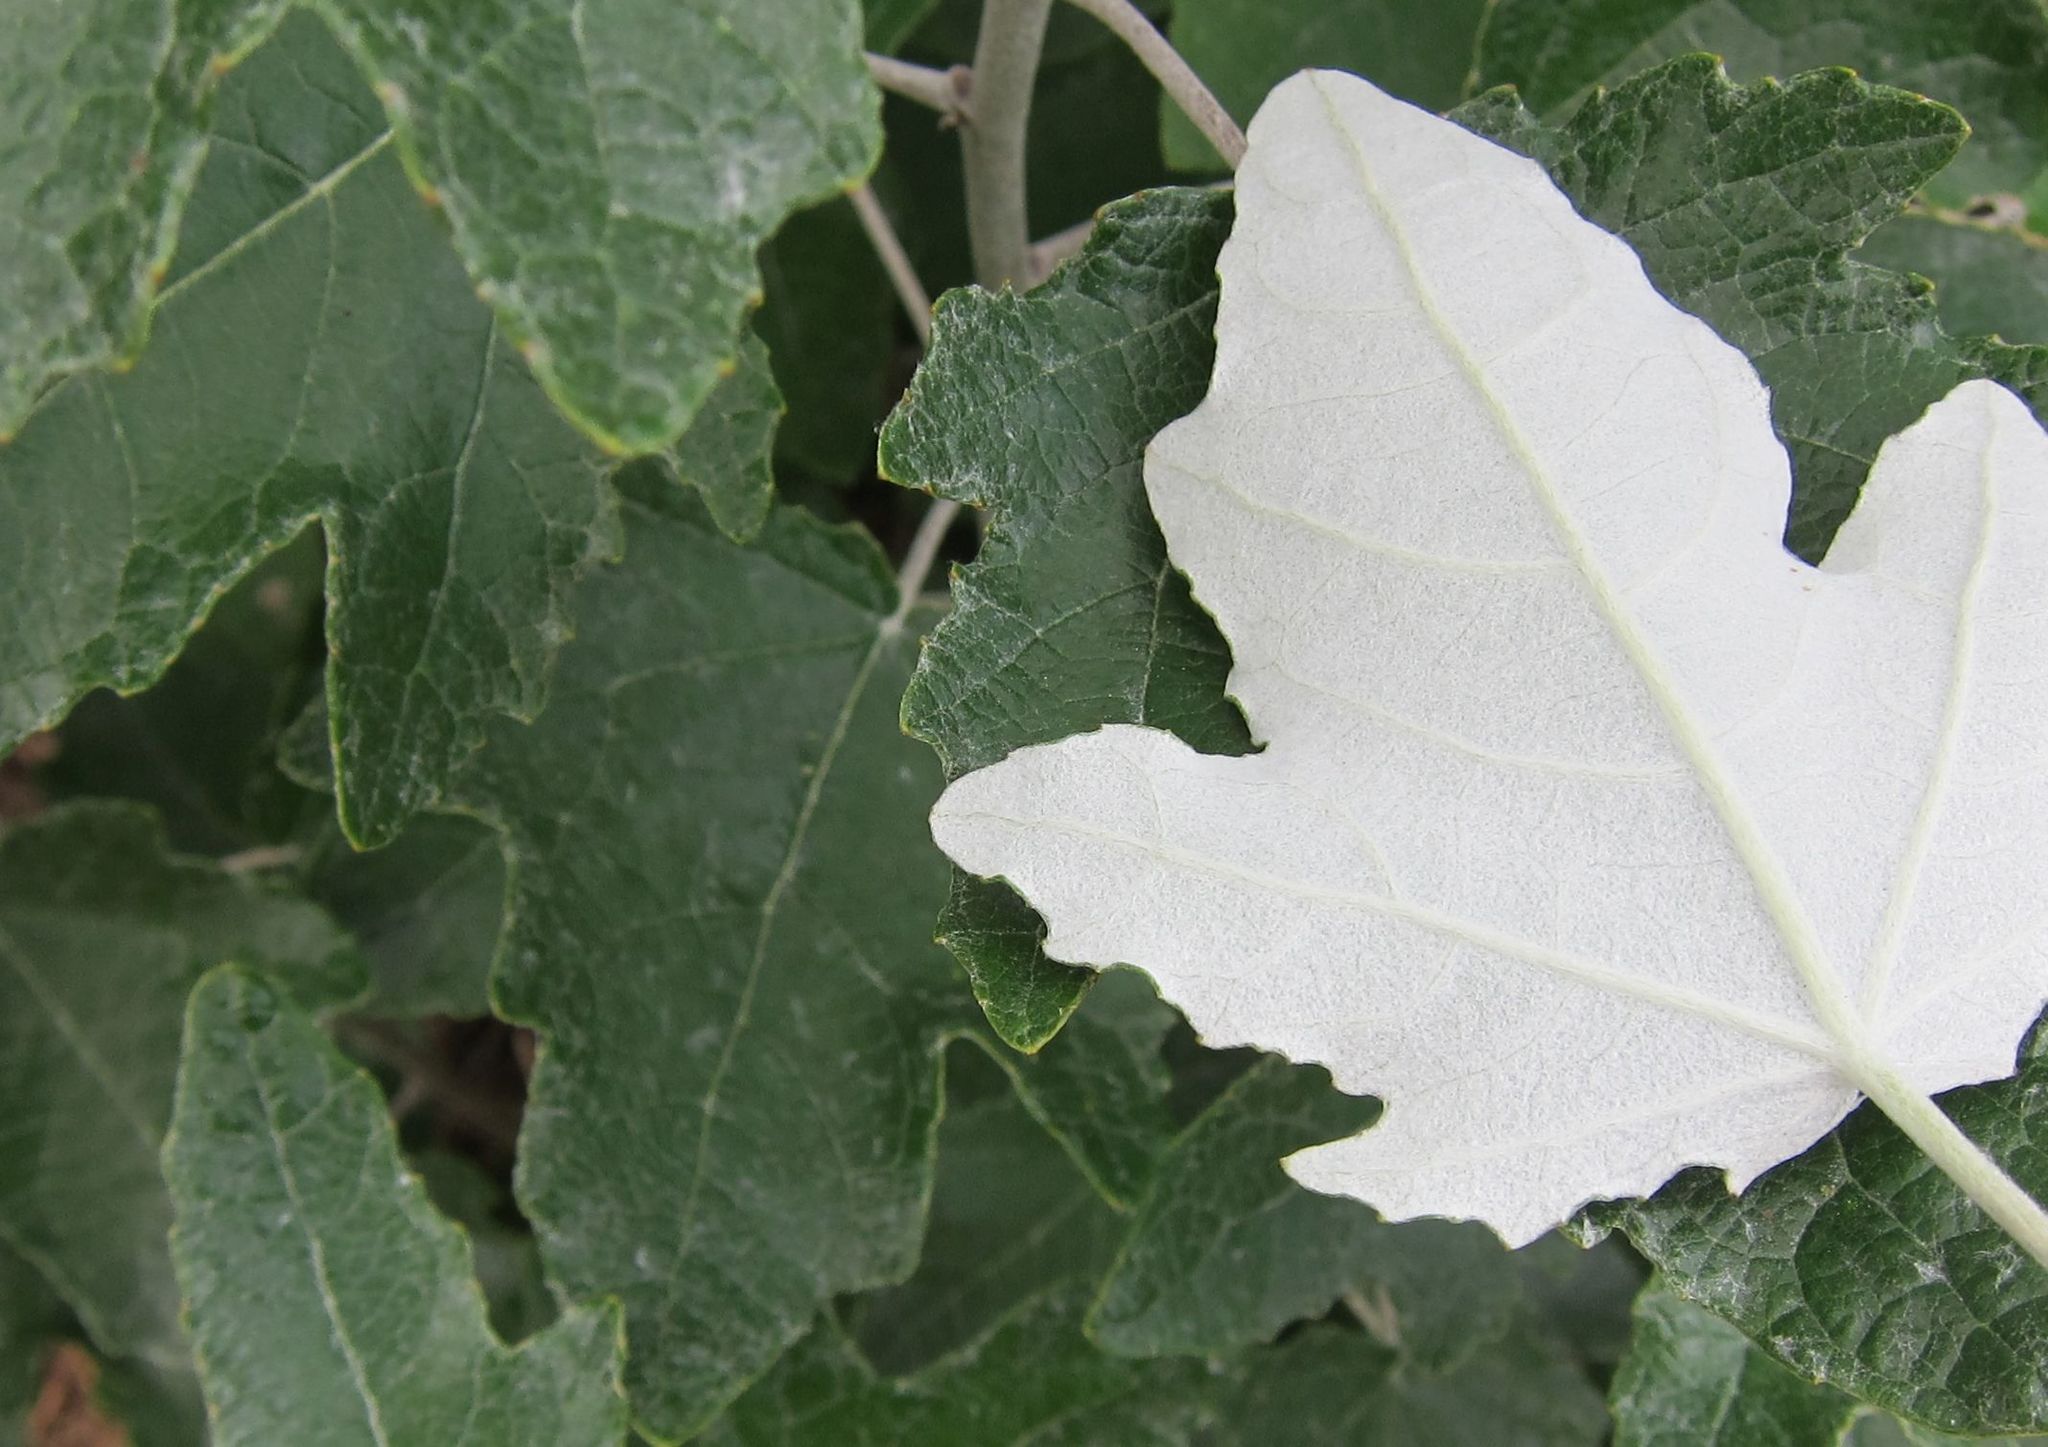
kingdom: Plantae
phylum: Tracheophyta
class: Magnoliopsida
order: Malpighiales
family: Salicaceae
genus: Populus
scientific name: Populus alba
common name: White poplar
